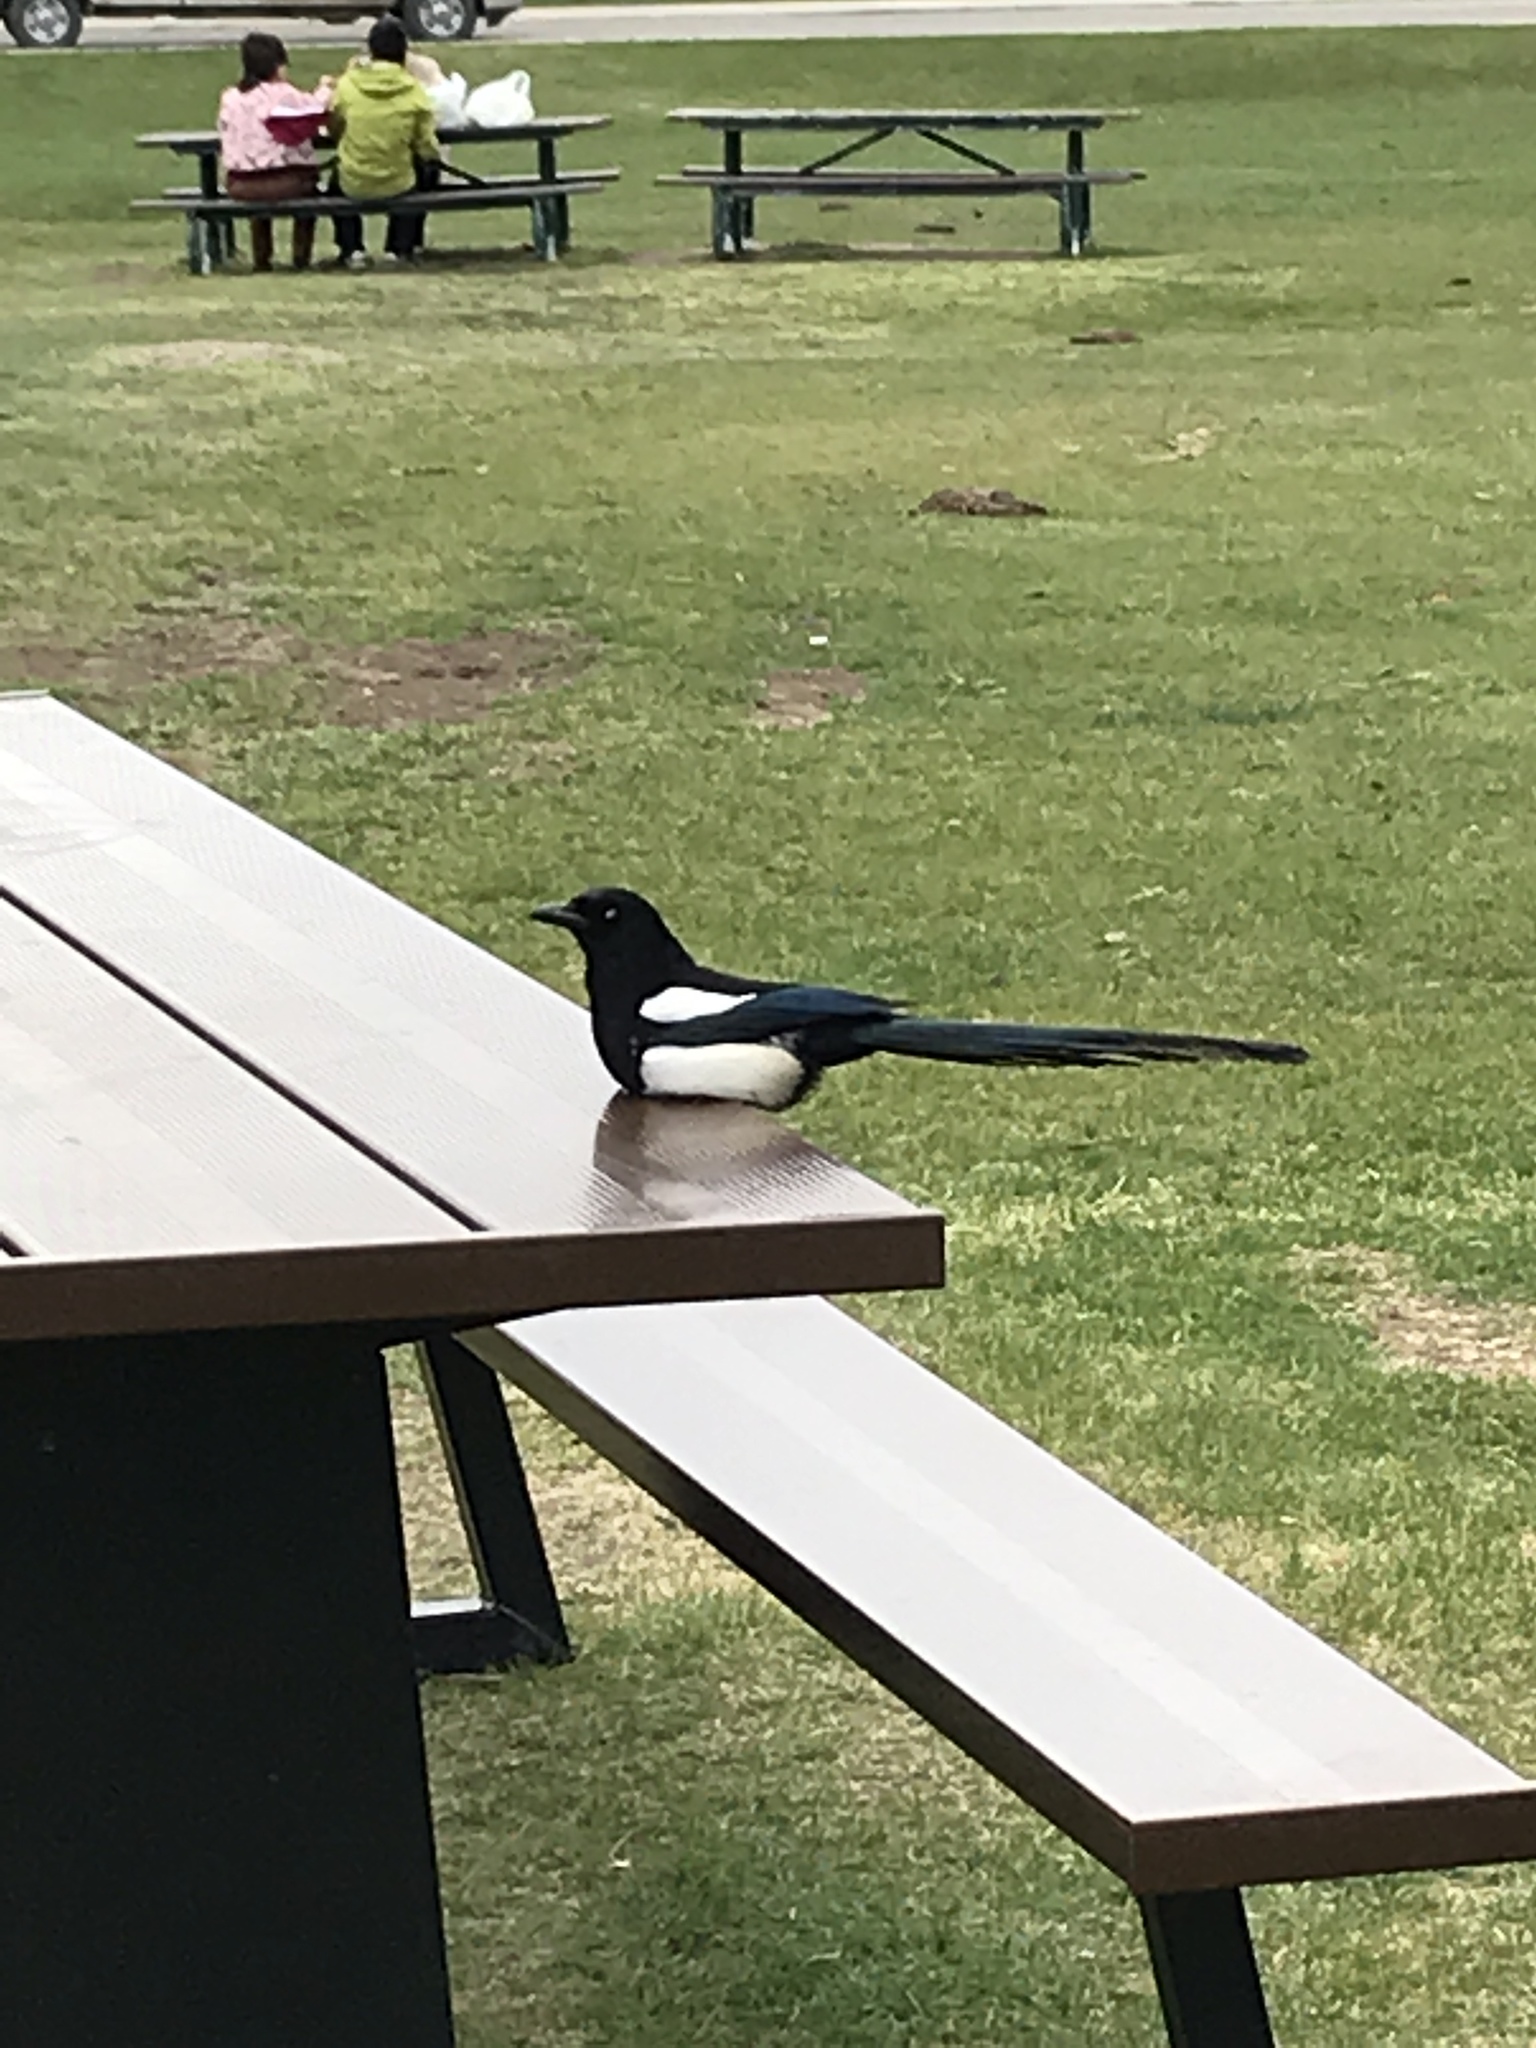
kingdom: Animalia
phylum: Chordata
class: Aves
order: Passeriformes
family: Corvidae
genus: Pica
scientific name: Pica hudsonia
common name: Black-billed magpie
